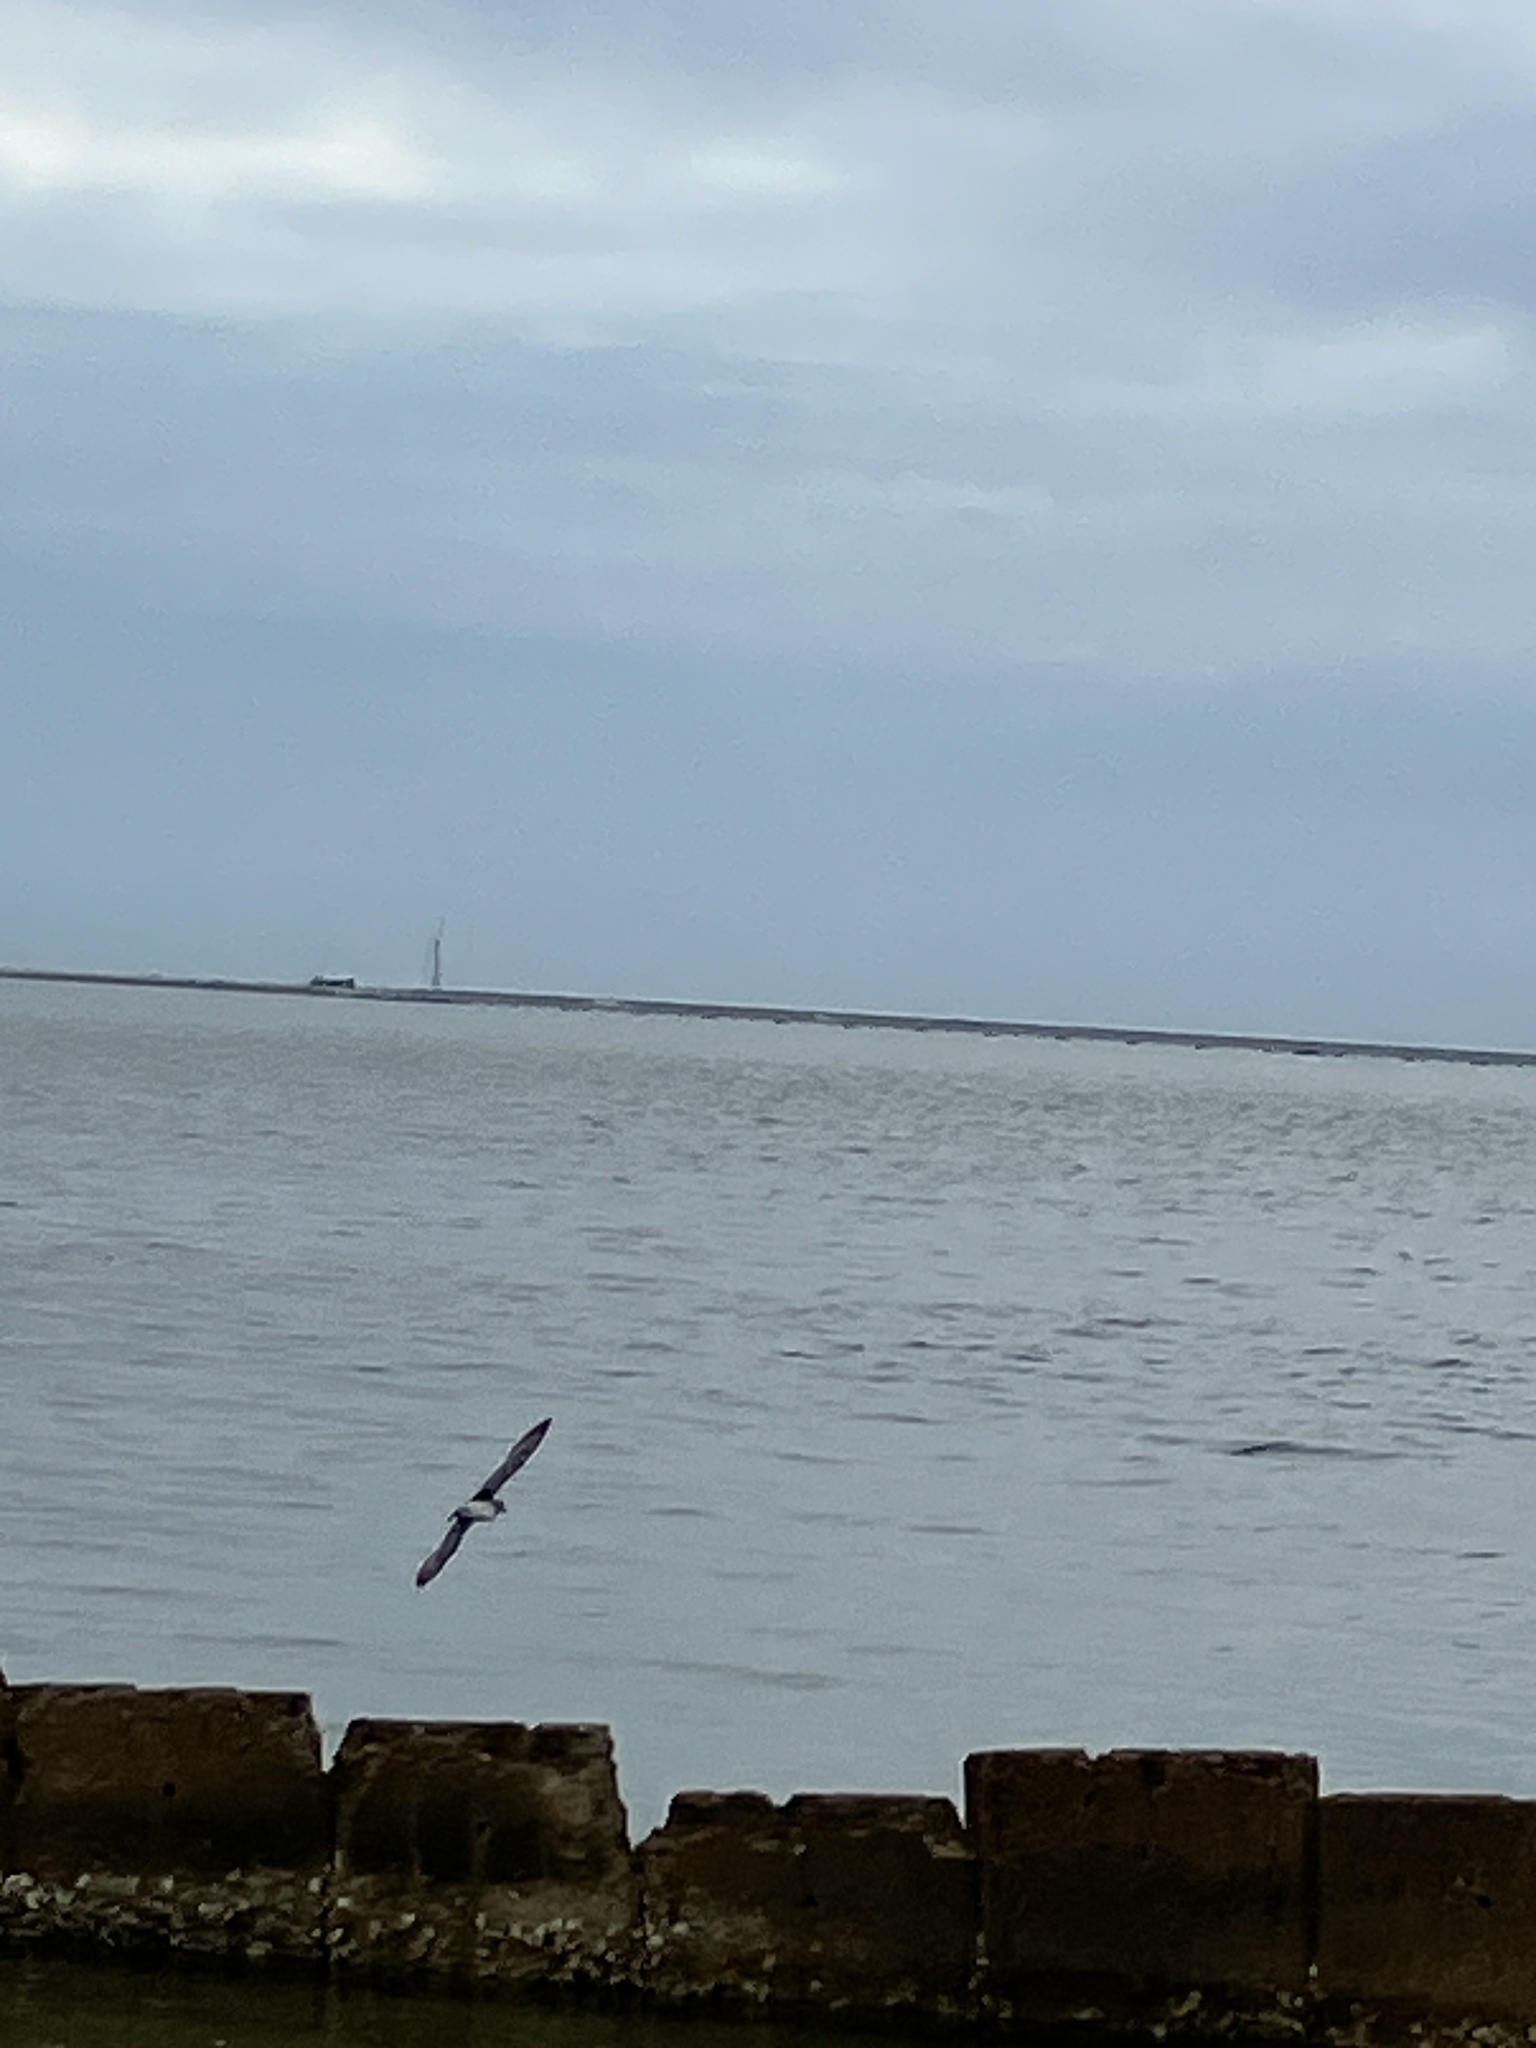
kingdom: Animalia
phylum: Chordata
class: Aves
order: Charadriiformes
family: Charadriidae
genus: Pluvialis
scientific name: Pluvialis squatarola
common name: Grey plover
